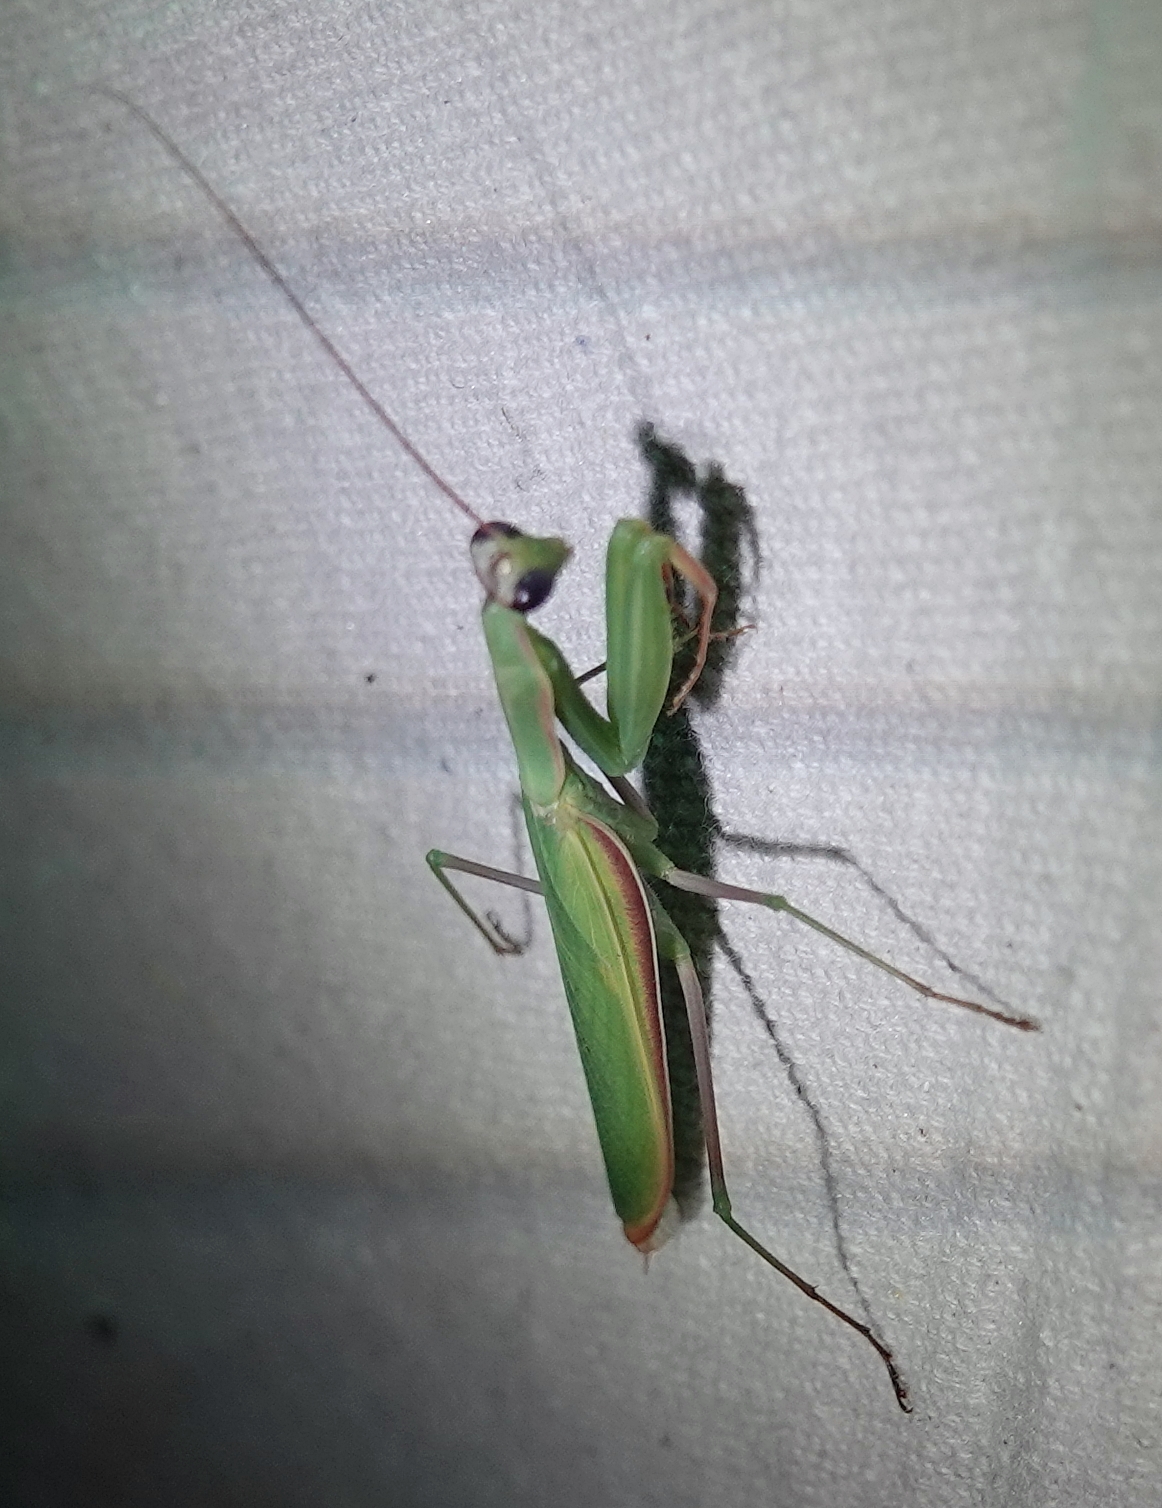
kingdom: Animalia
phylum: Arthropoda
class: Insecta
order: Mantodea
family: Mantidae
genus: Mantis
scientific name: Mantis religiosa
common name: Praying mantis
